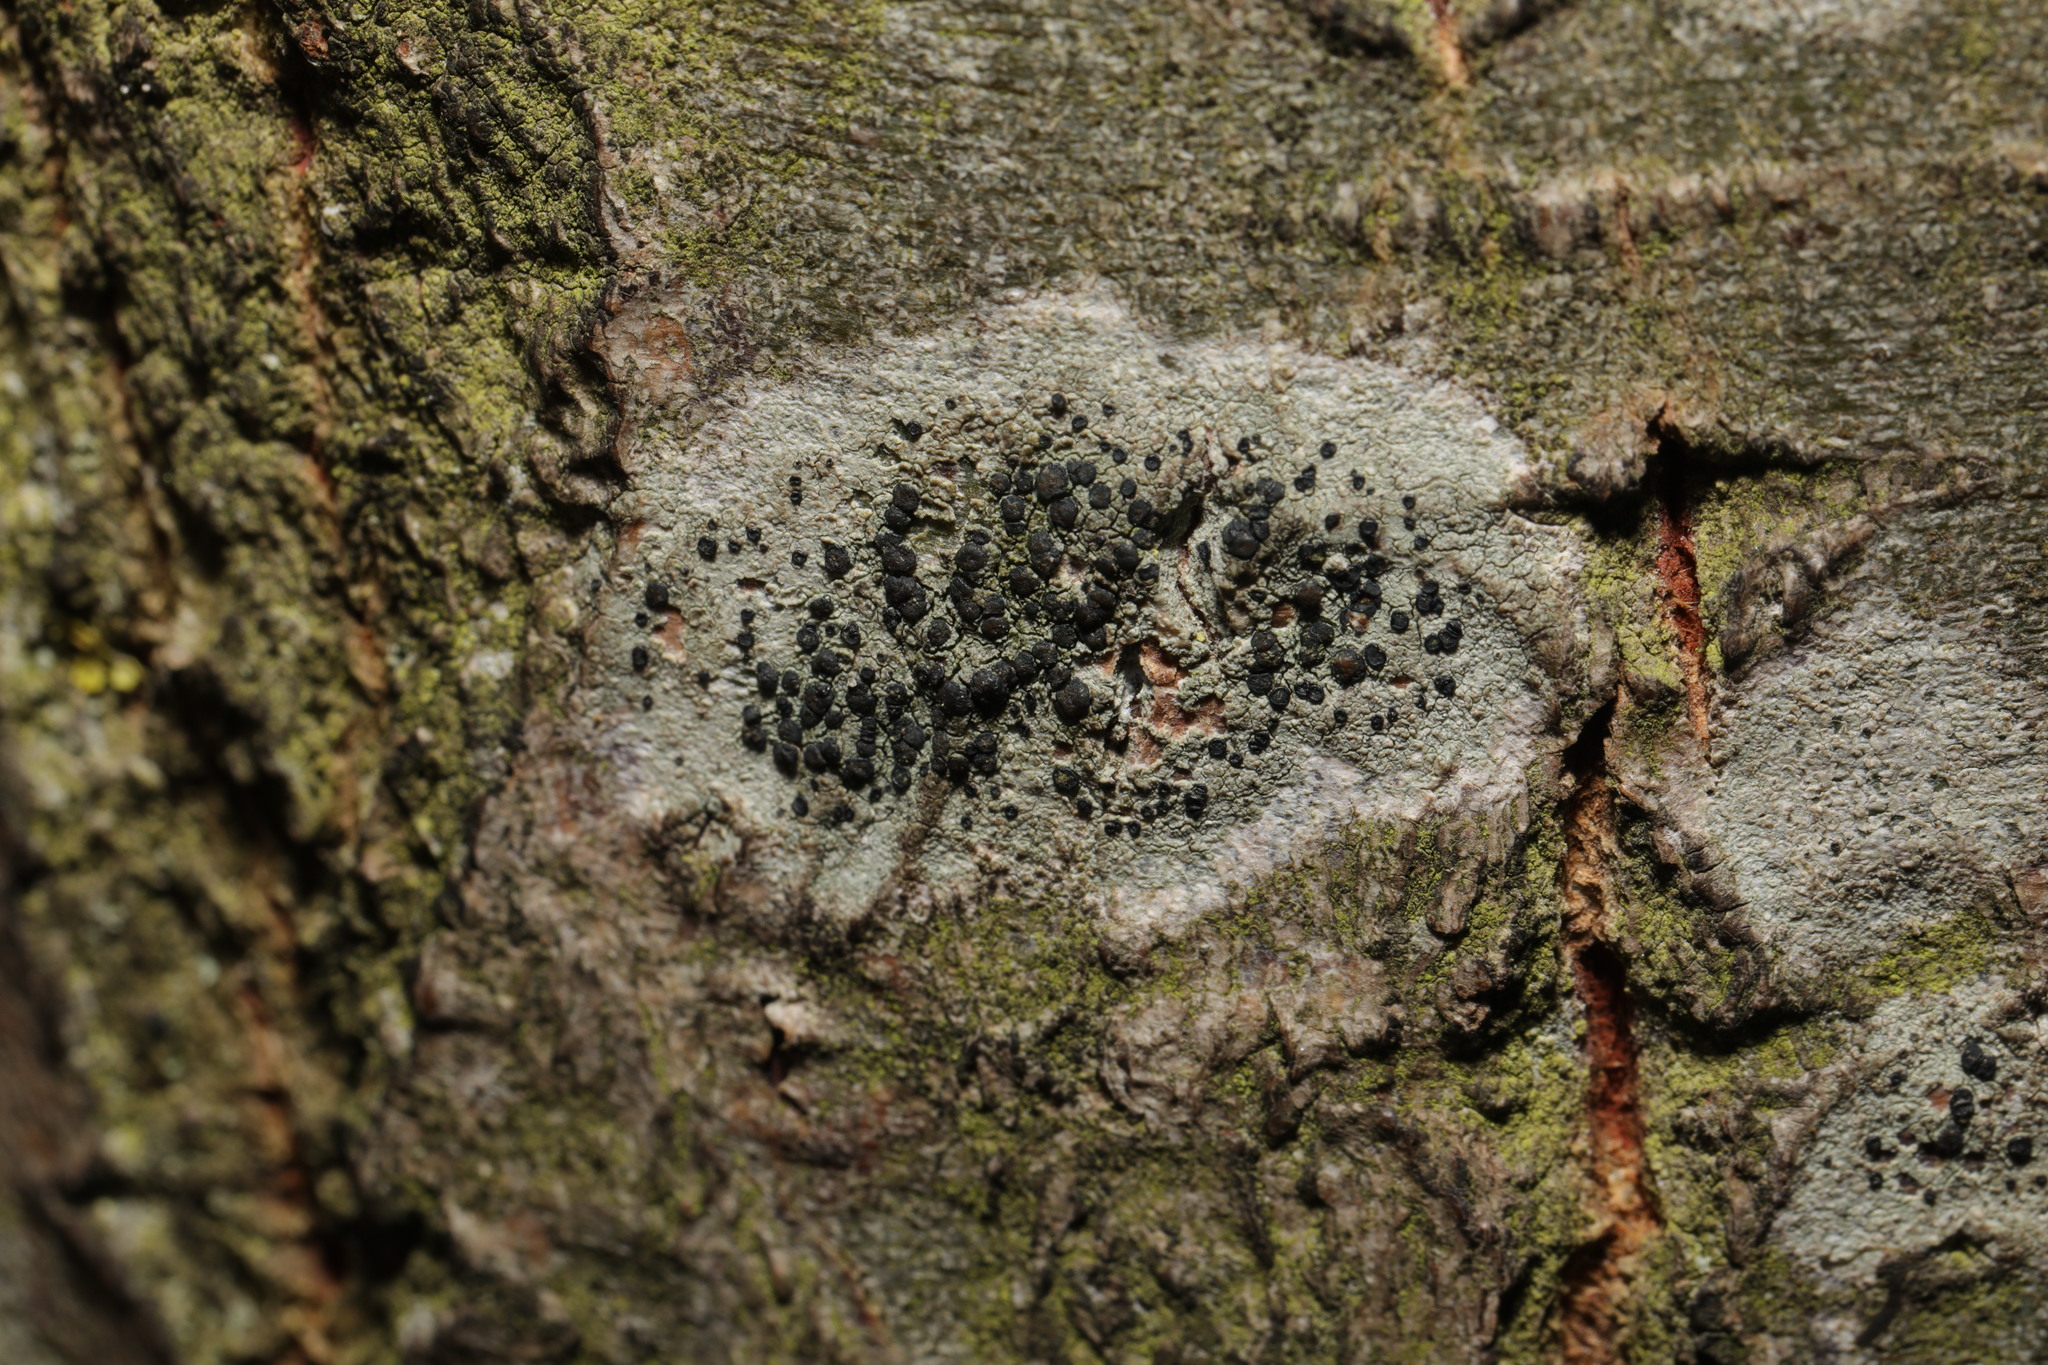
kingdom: Fungi
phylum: Ascomycota
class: Lecanoromycetes
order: Lecanorales
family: Lecanoraceae
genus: Lecidella
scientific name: Lecidella elaeochroma
